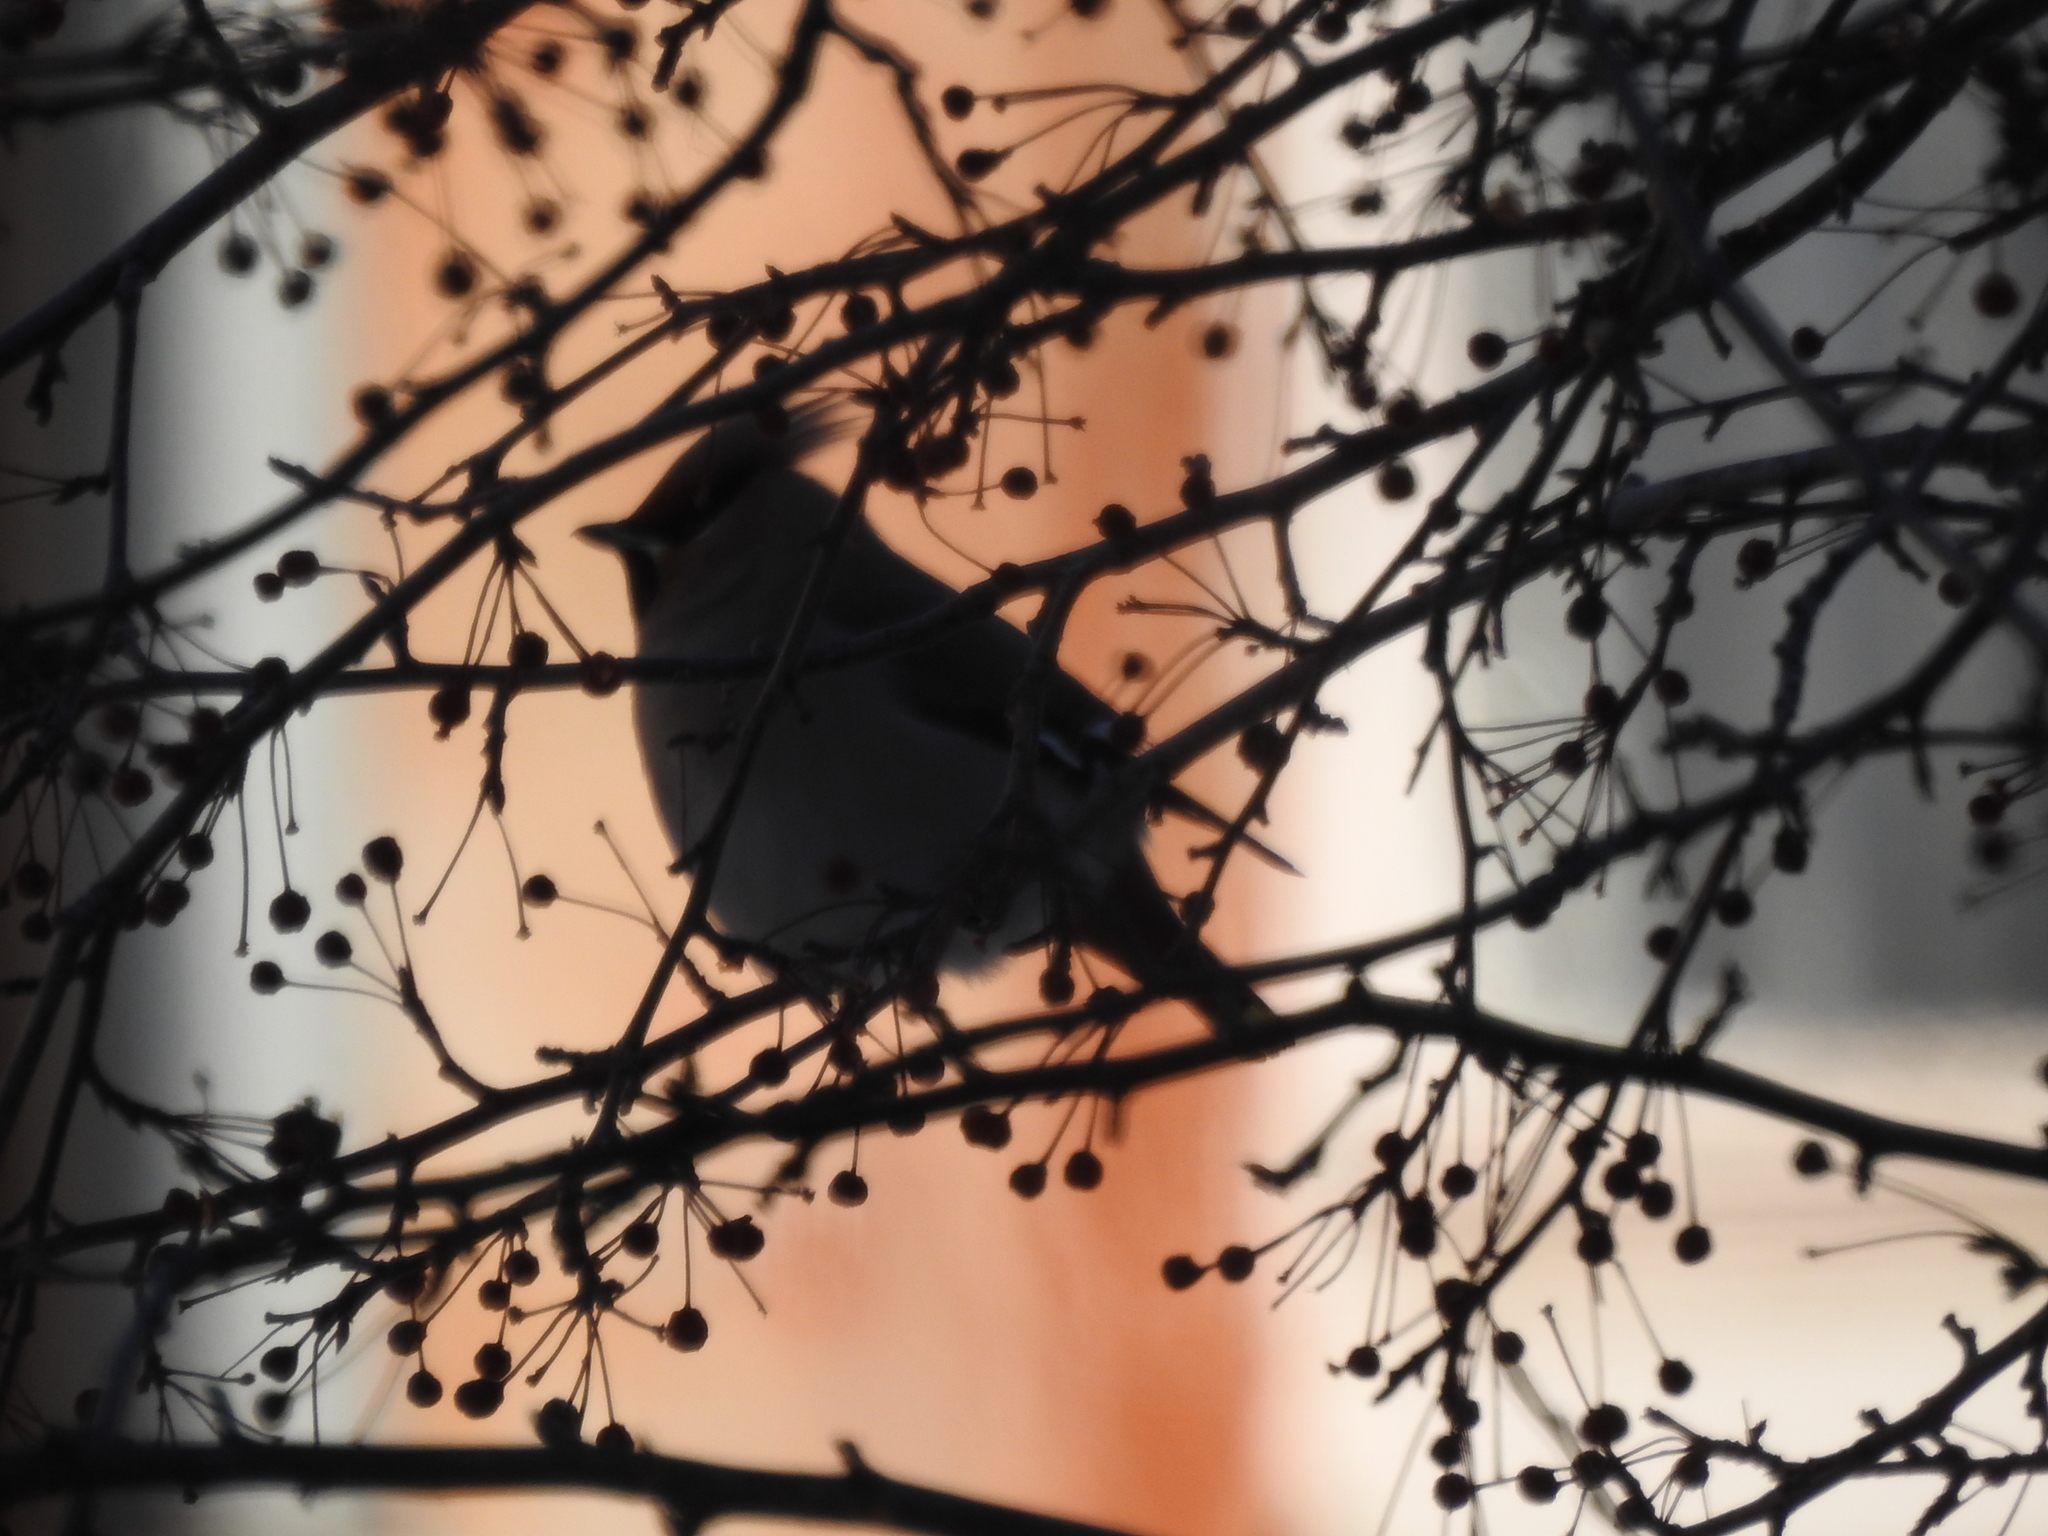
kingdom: Animalia
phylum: Chordata
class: Aves
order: Passeriformes
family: Bombycillidae
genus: Bombycilla
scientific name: Bombycilla garrulus
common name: Bohemian waxwing
